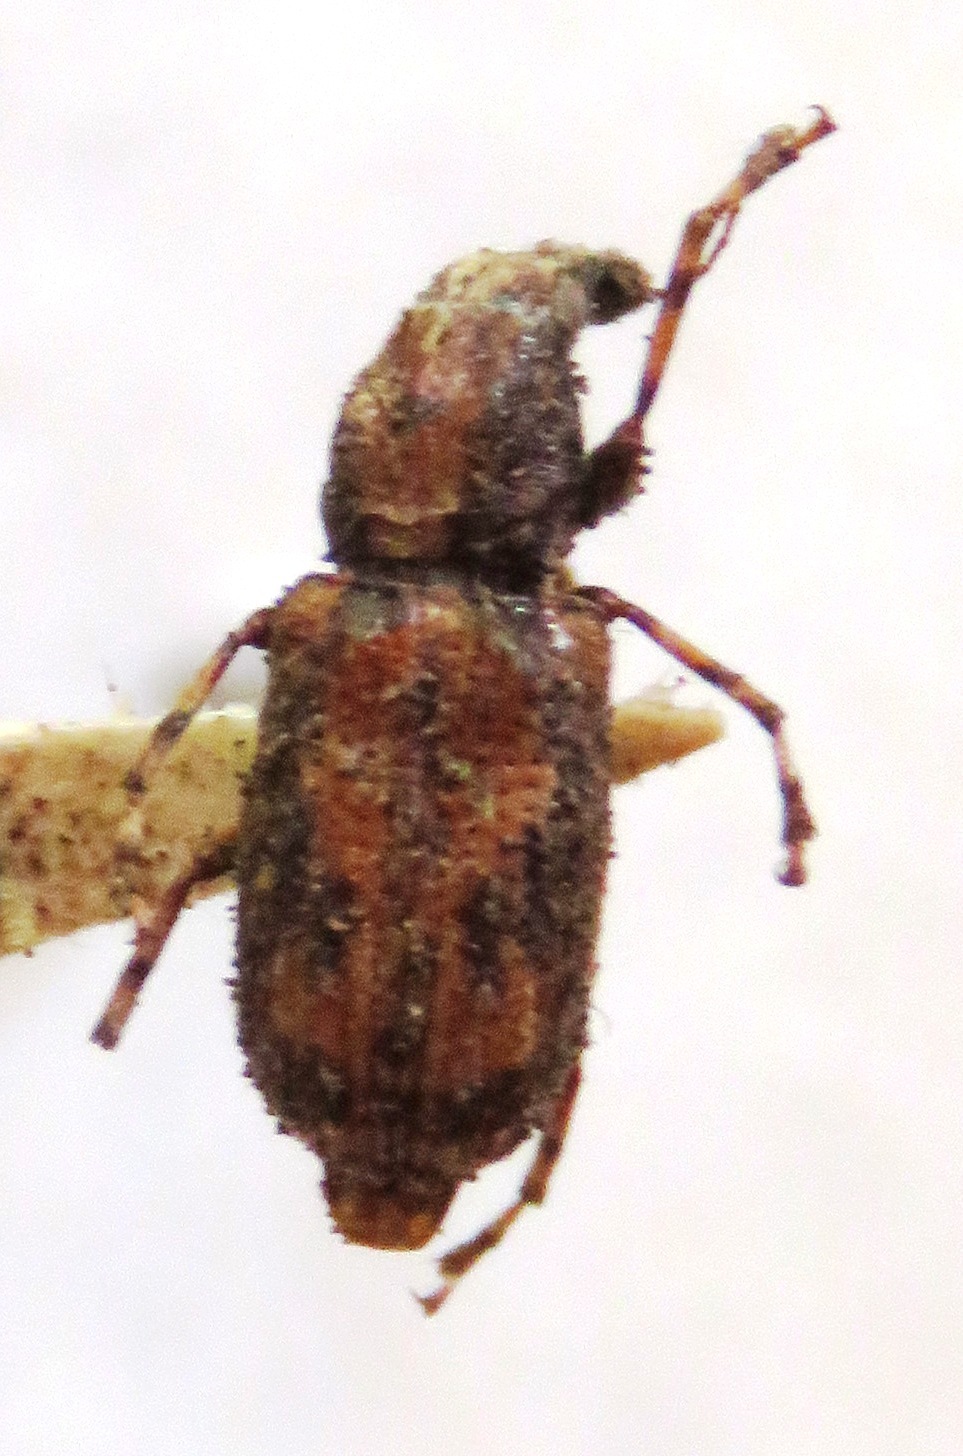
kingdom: Animalia
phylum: Arthropoda
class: Insecta
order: Coleoptera
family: Anthribidae
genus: Meconemus
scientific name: Meconemus infuscatus
